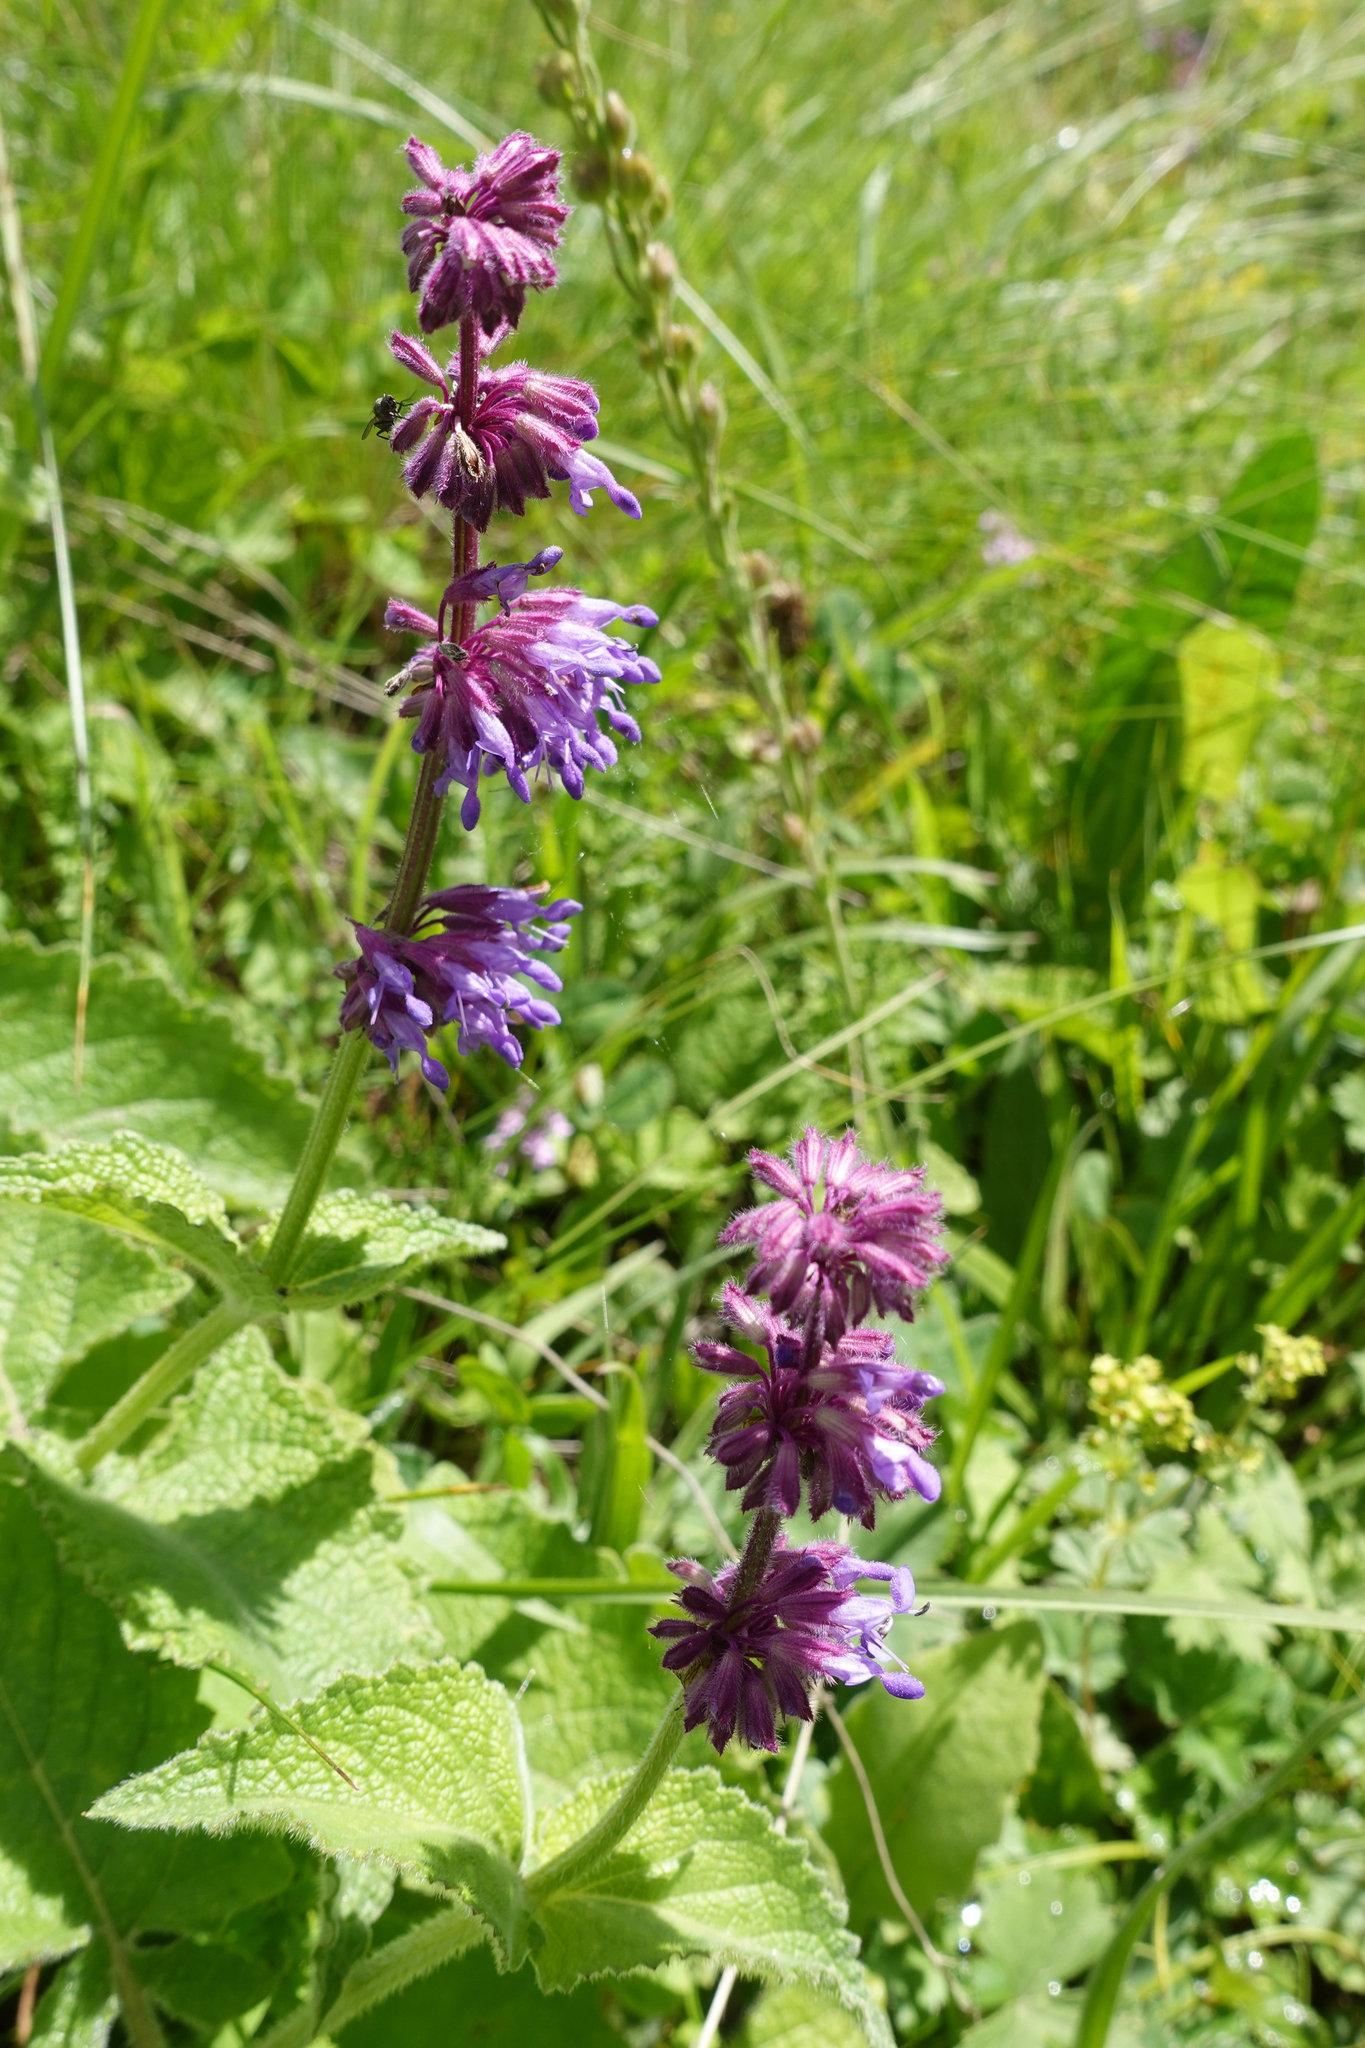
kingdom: Plantae
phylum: Tracheophyta
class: Magnoliopsida
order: Lamiales
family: Lamiaceae
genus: Salvia
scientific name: Salvia verticillata
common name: Whorled clary
